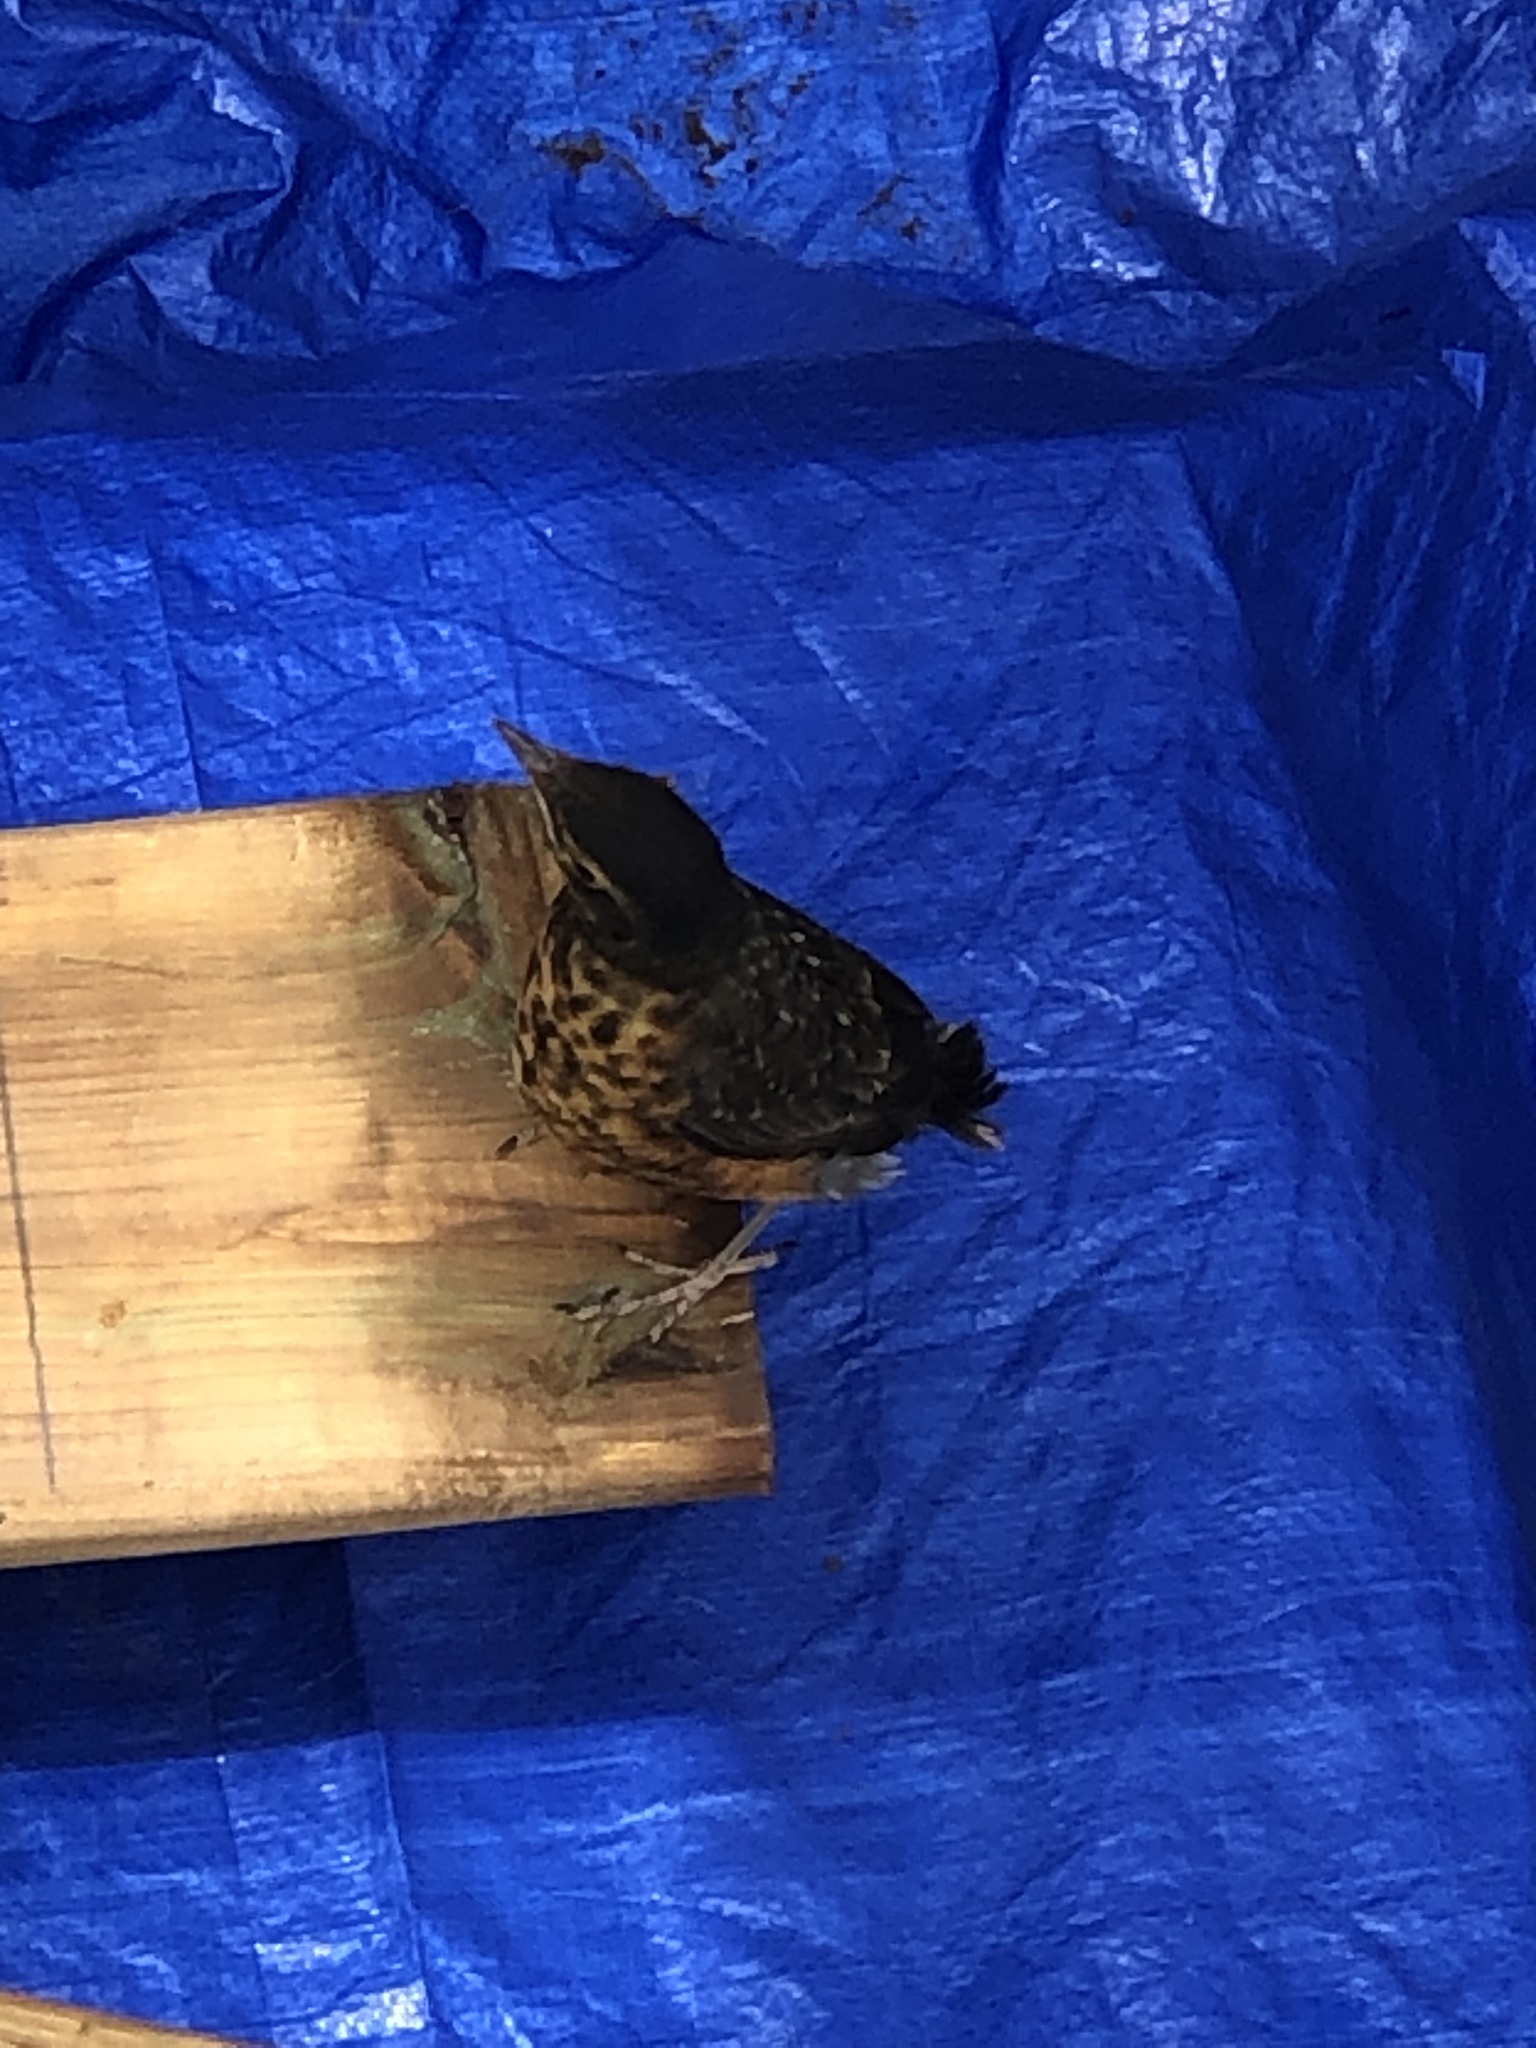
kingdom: Animalia
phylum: Chordata
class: Aves
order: Passeriformes
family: Turdidae
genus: Turdus
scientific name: Turdus migratorius
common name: American robin
